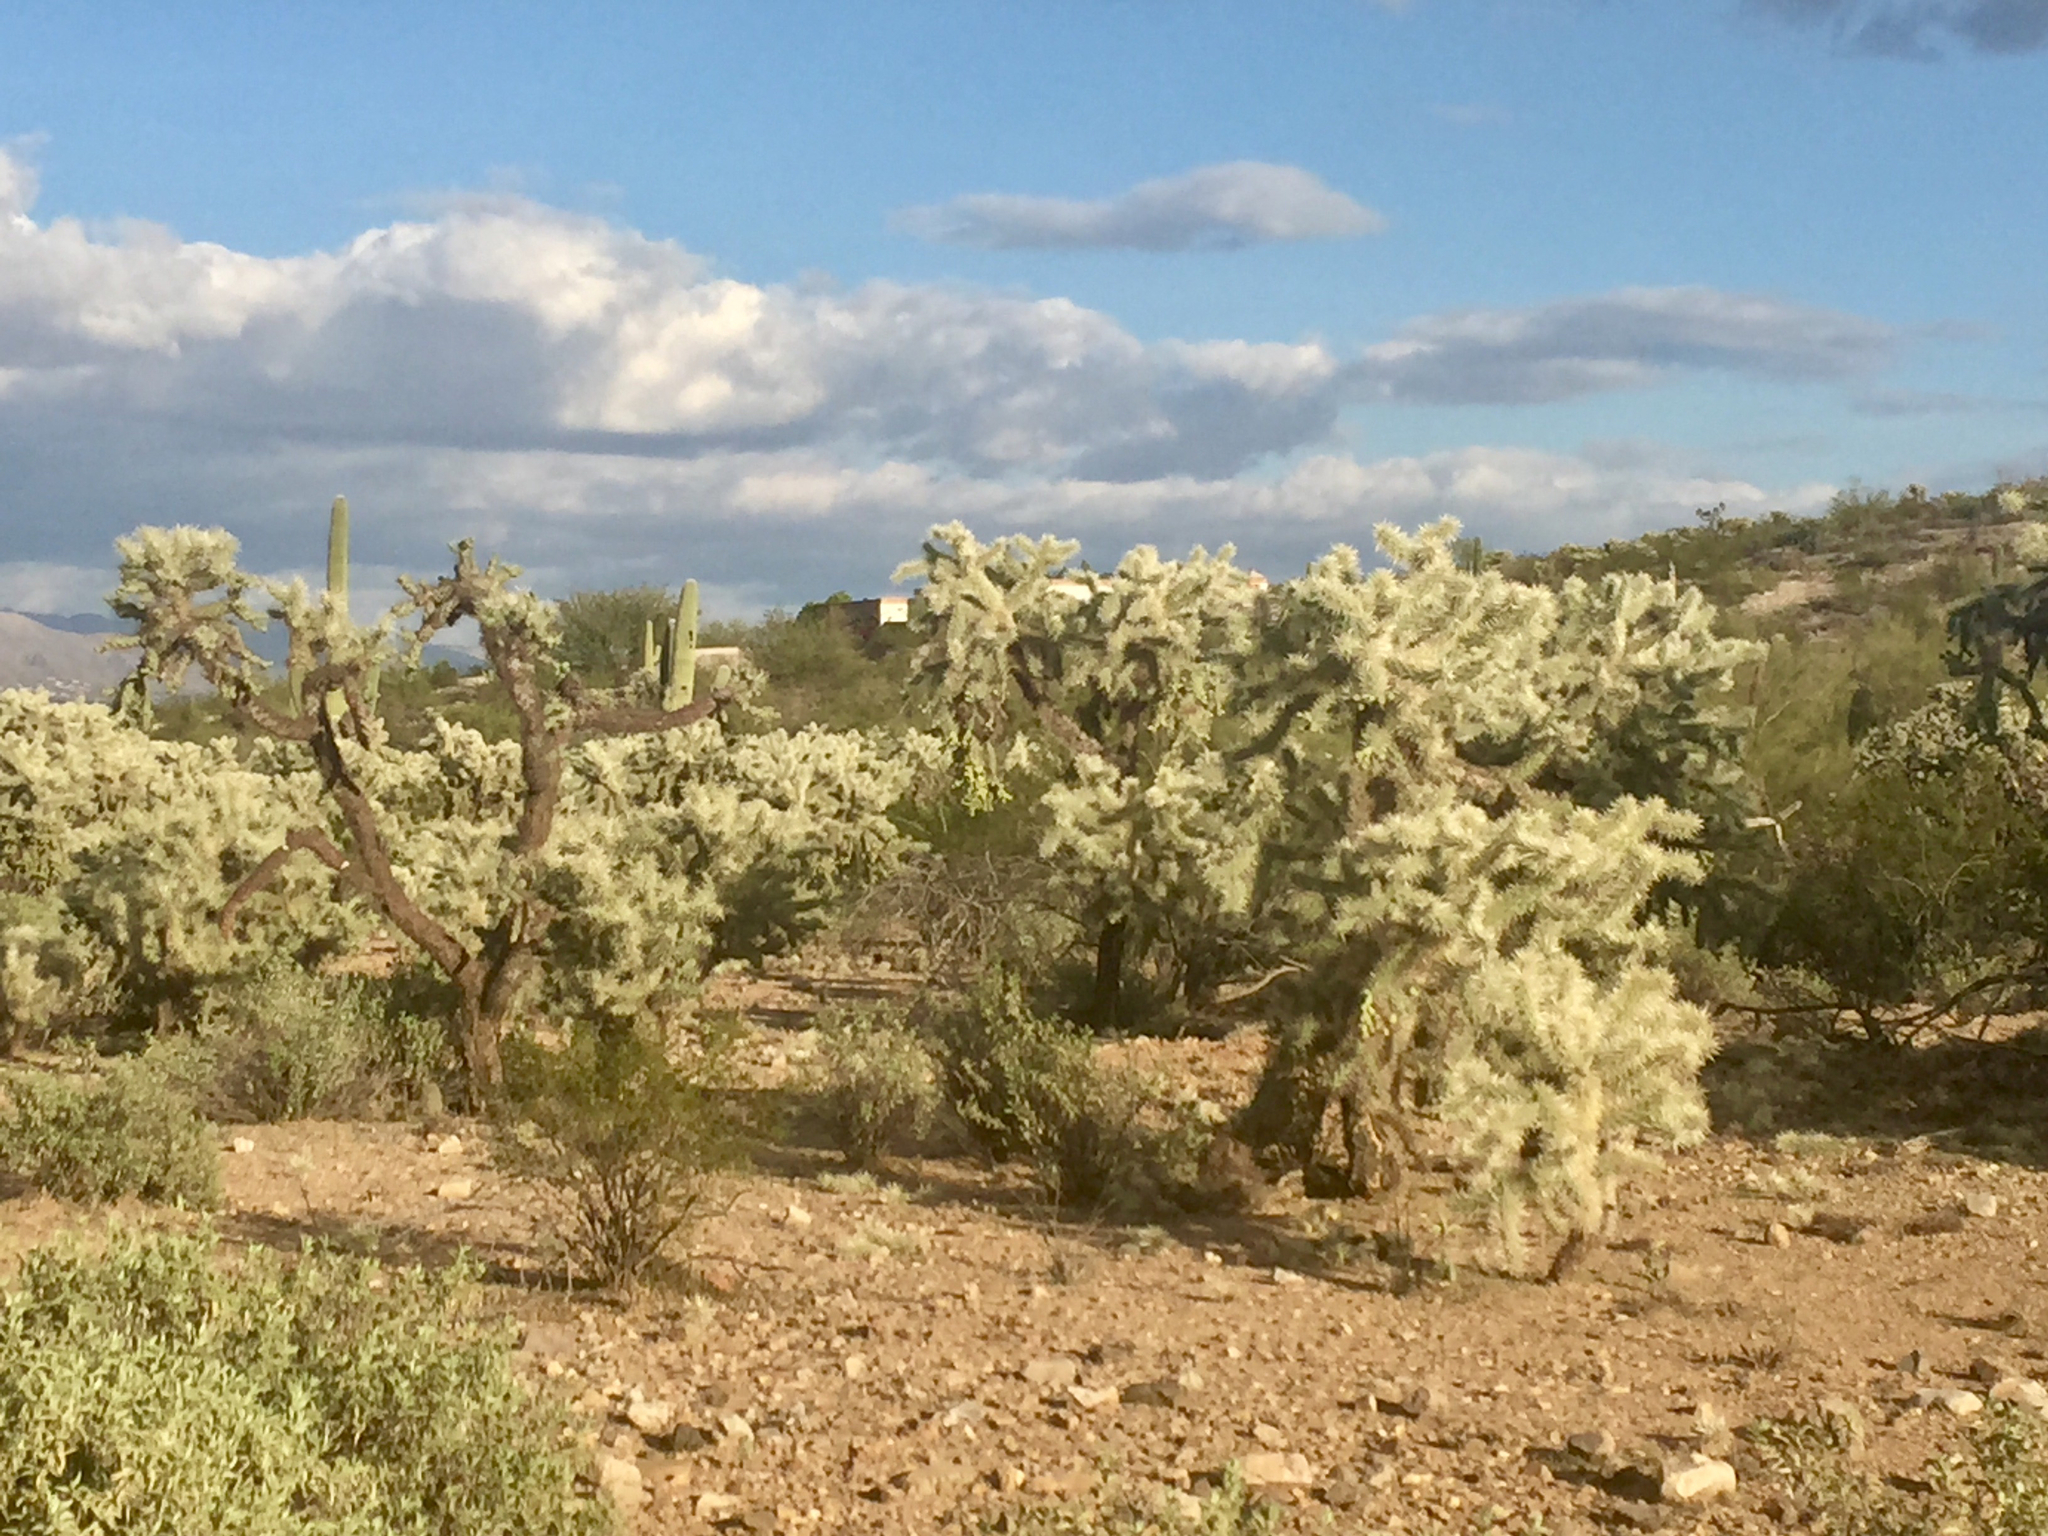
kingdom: Plantae
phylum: Tracheophyta
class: Magnoliopsida
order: Caryophyllales
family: Cactaceae
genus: Cylindropuntia
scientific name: Cylindropuntia fulgida
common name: Jumping cholla
